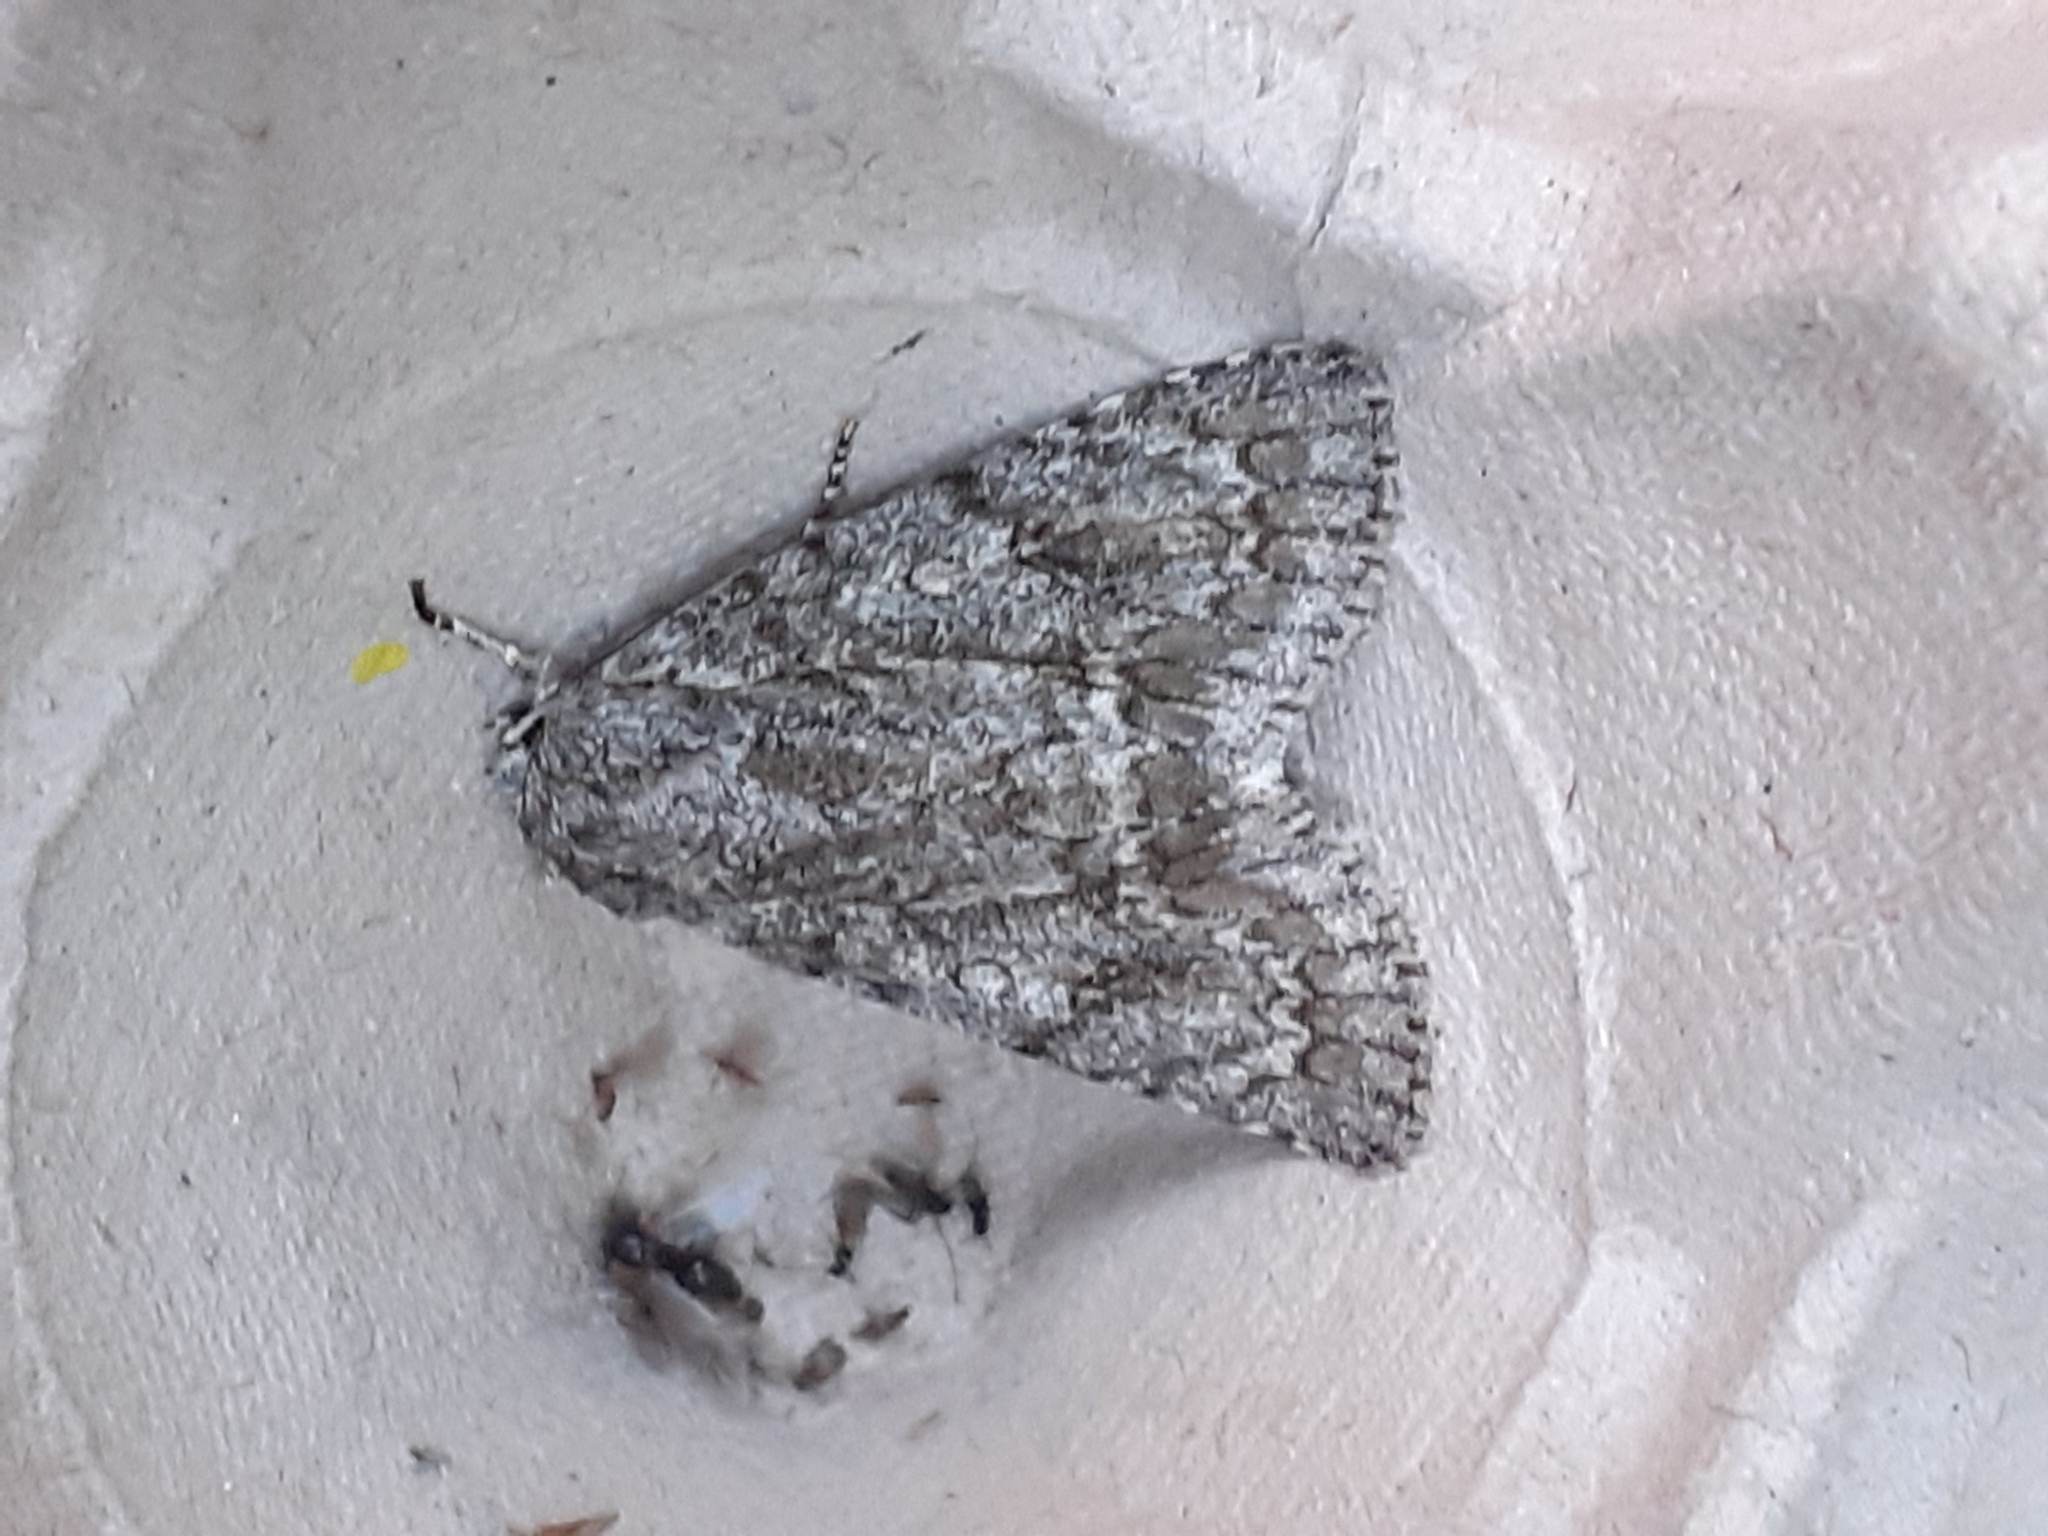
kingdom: Animalia
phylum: Arthropoda
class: Insecta
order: Lepidoptera
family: Noctuidae
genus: Acronicta
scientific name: Acronicta aceris
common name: Sycamore
